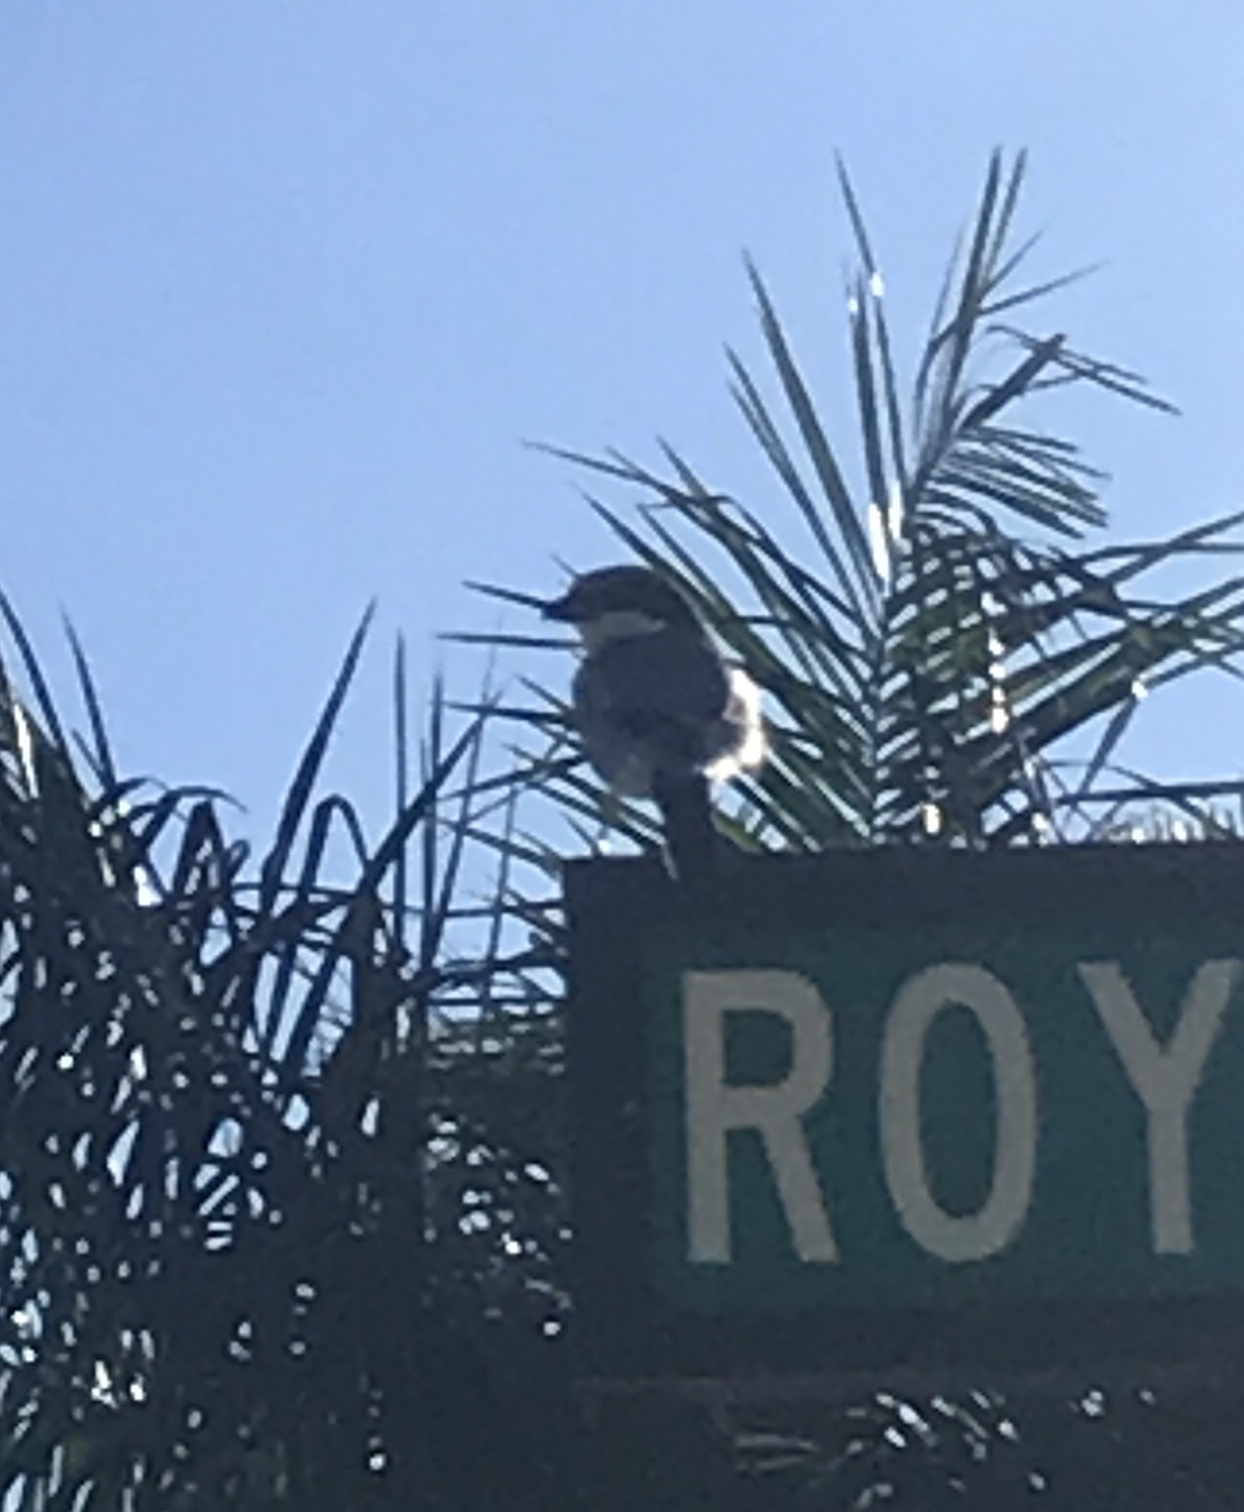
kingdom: Animalia
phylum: Chordata
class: Aves
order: Passeriformes
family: Laniidae
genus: Lanius
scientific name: Lanius ludovicianus
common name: Loggerhead shrike
